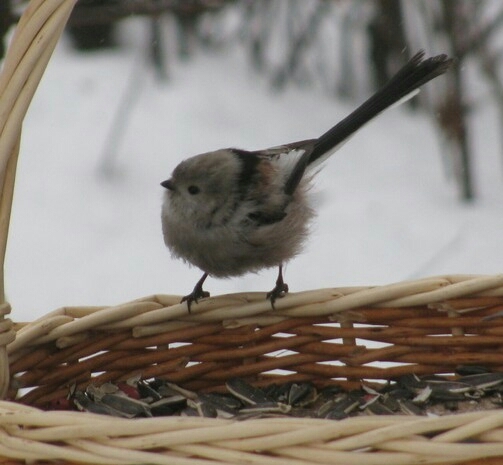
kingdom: Animalia
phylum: Chordata
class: Aves
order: Passeriformes
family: Aegithalidae
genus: Aegithalos
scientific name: Aegithalos caudatus
